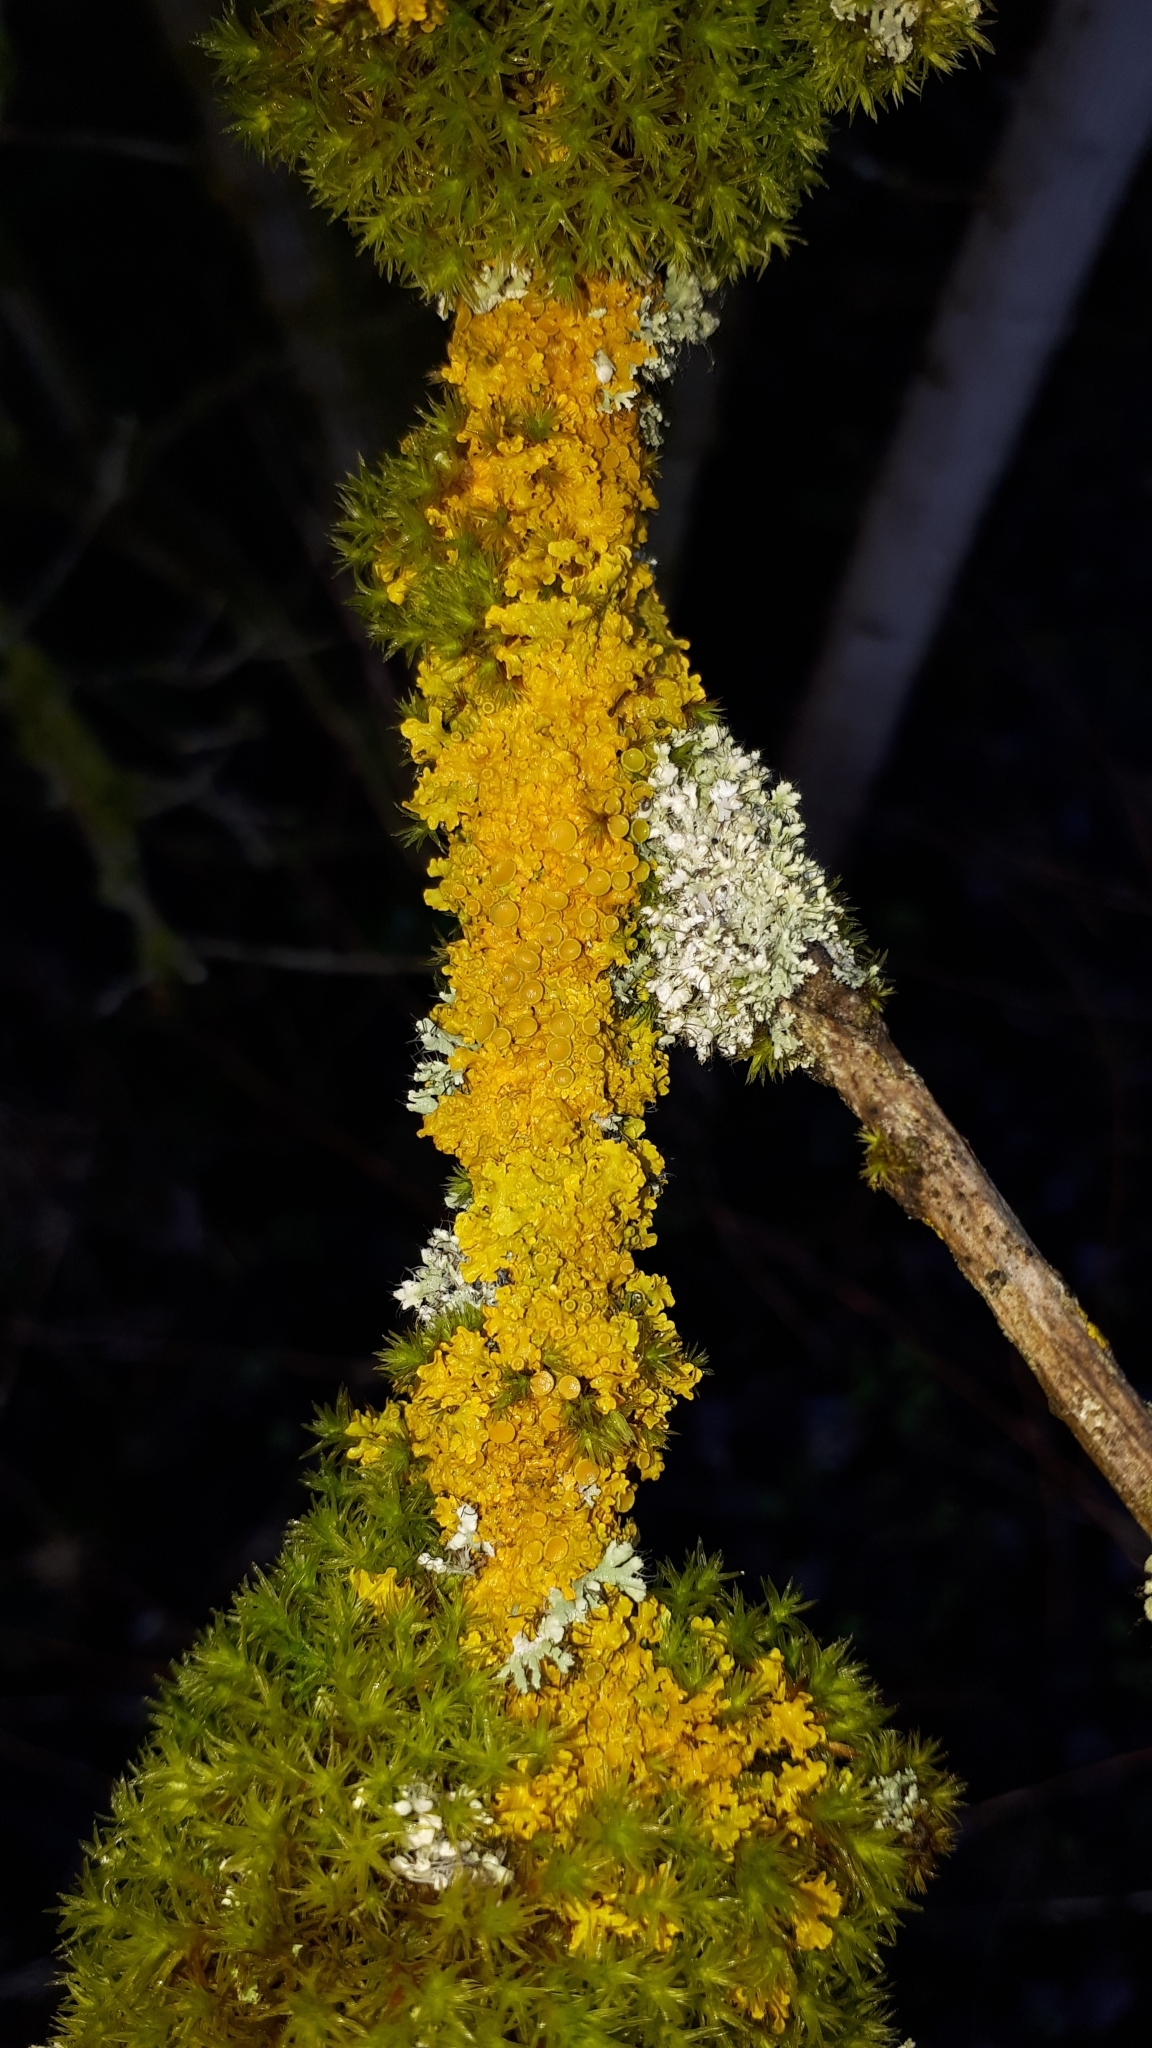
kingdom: Fungi
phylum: Ascomycota
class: Lecanoromycetes
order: Teloschistales
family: Teloschistaceae
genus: Xanthoria
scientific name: Xanthoria parietina
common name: Common orange lichen
